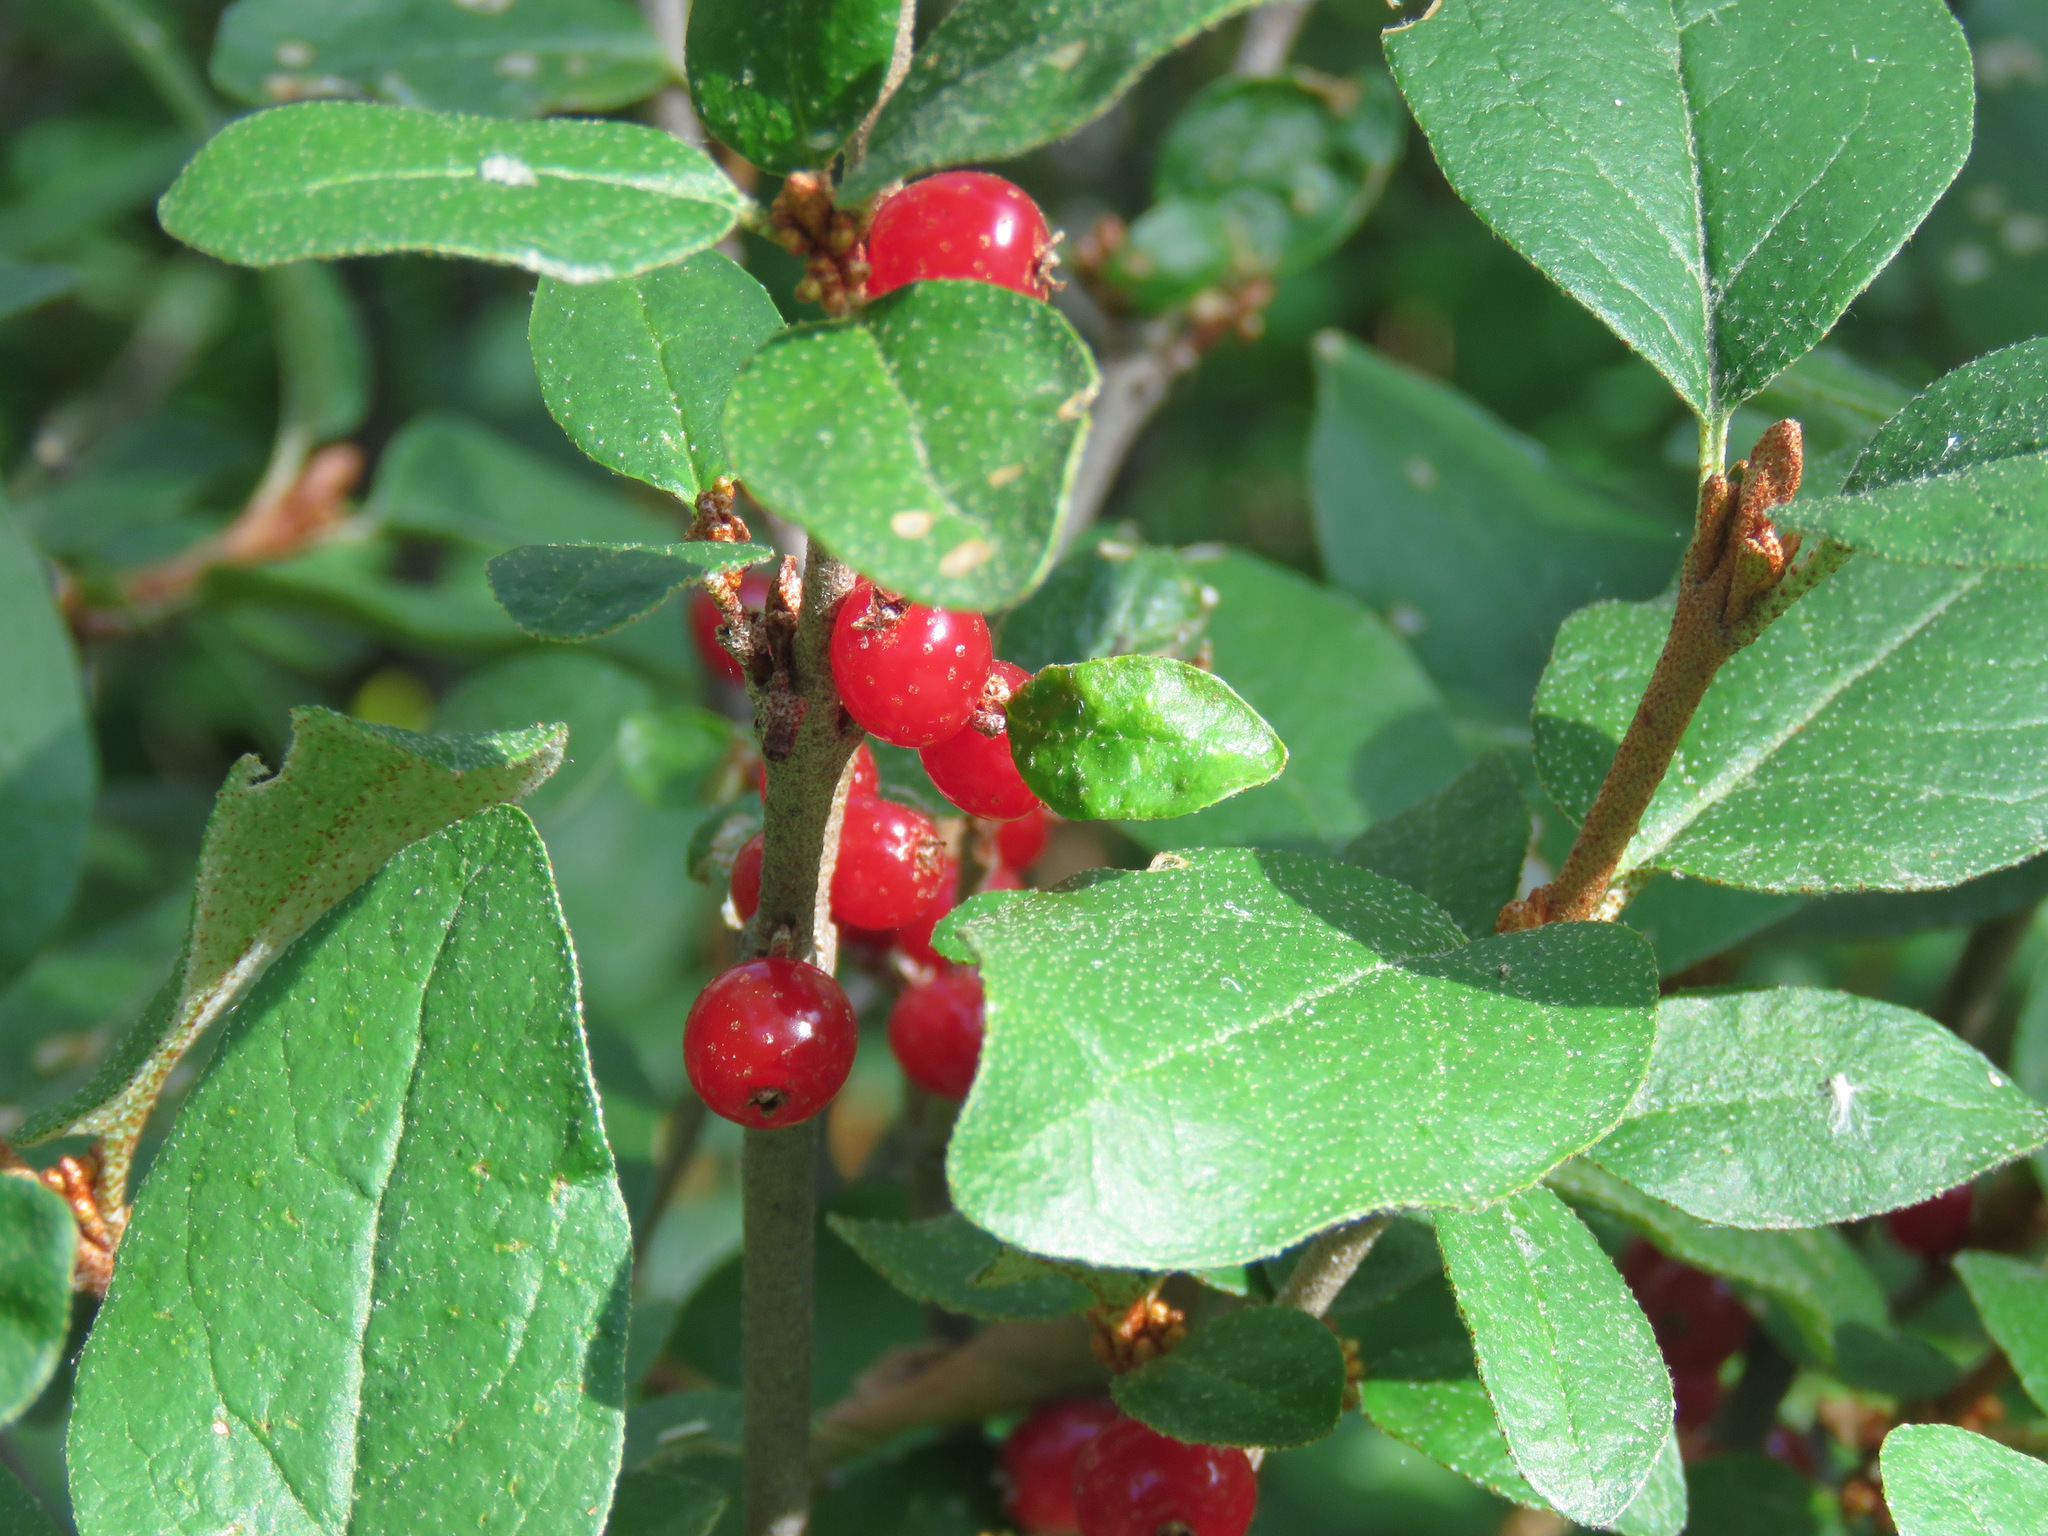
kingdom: Plantae
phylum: Tracheophyta
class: Magnoliopsida
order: Rosales
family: Elaeagnaceae
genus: Shepherdia
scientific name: Shepherdia canadensis
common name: Soapberry
